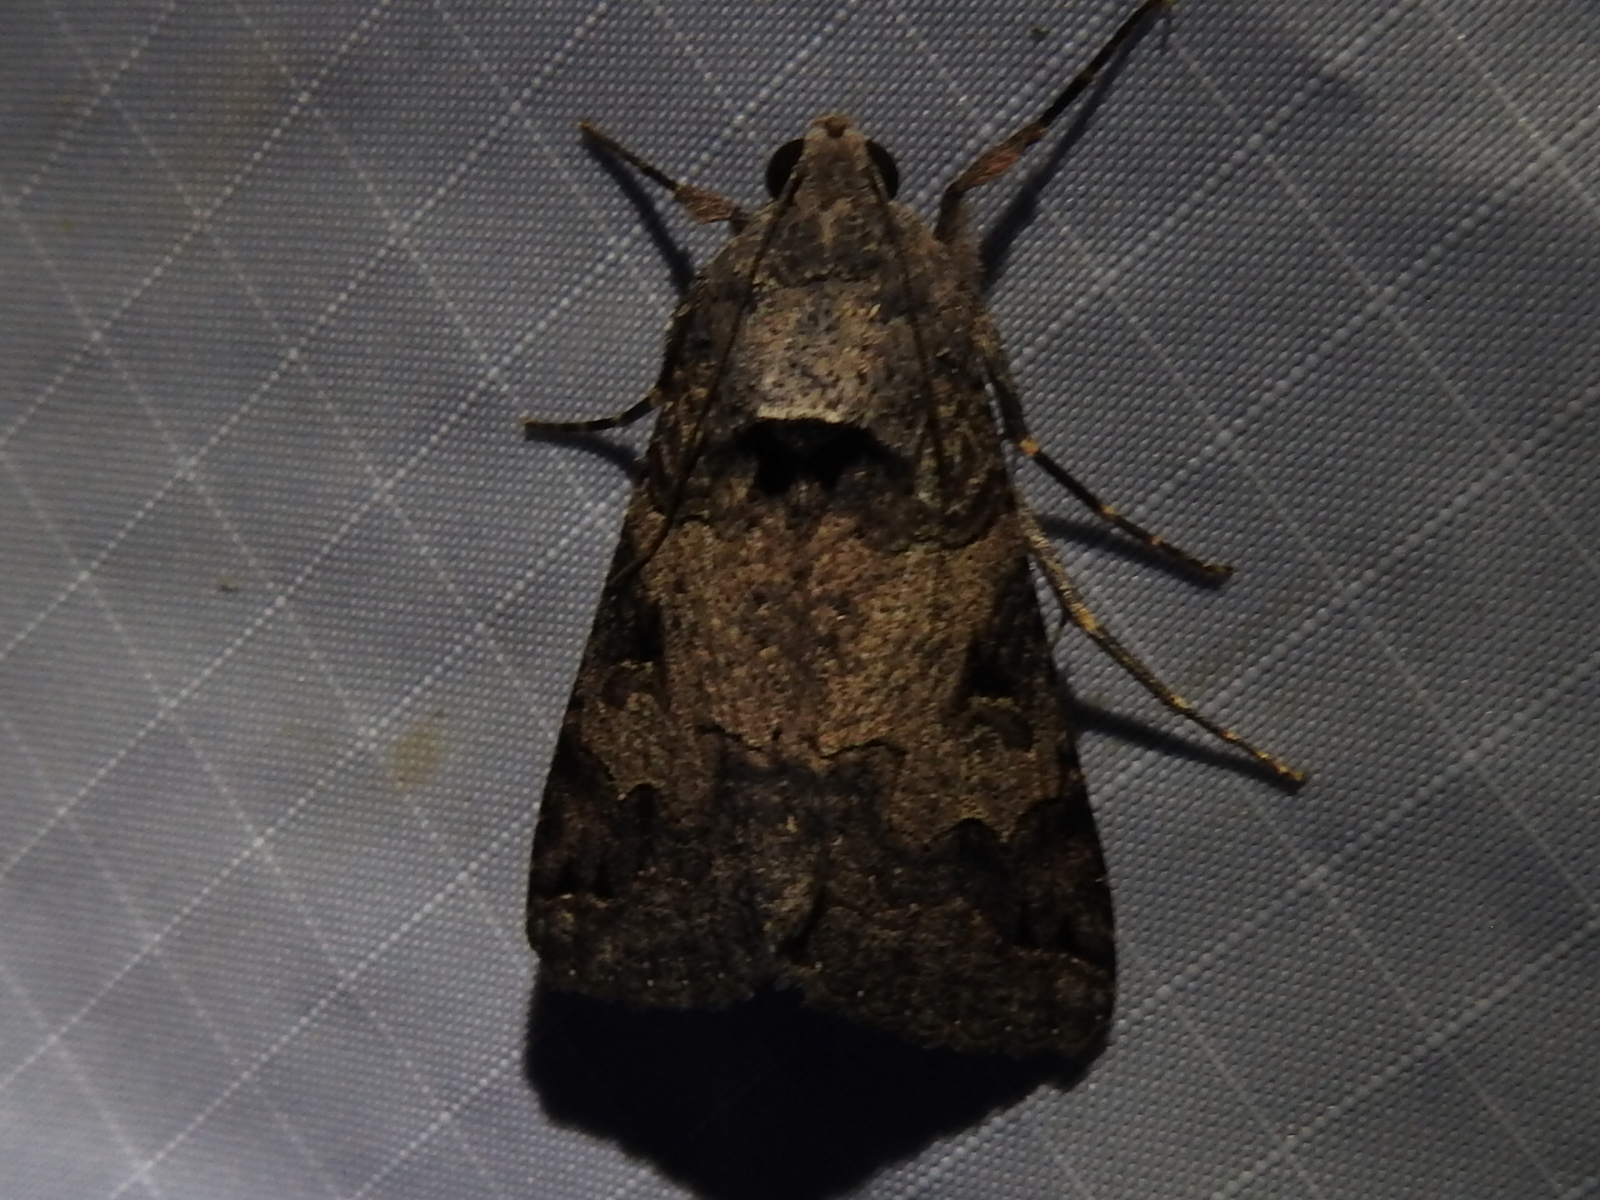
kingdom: Animalia
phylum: Arthropoda
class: Insecta
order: Lepidoptera
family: Erebidae
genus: Melipotis
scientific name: Melipotis agrotoides
